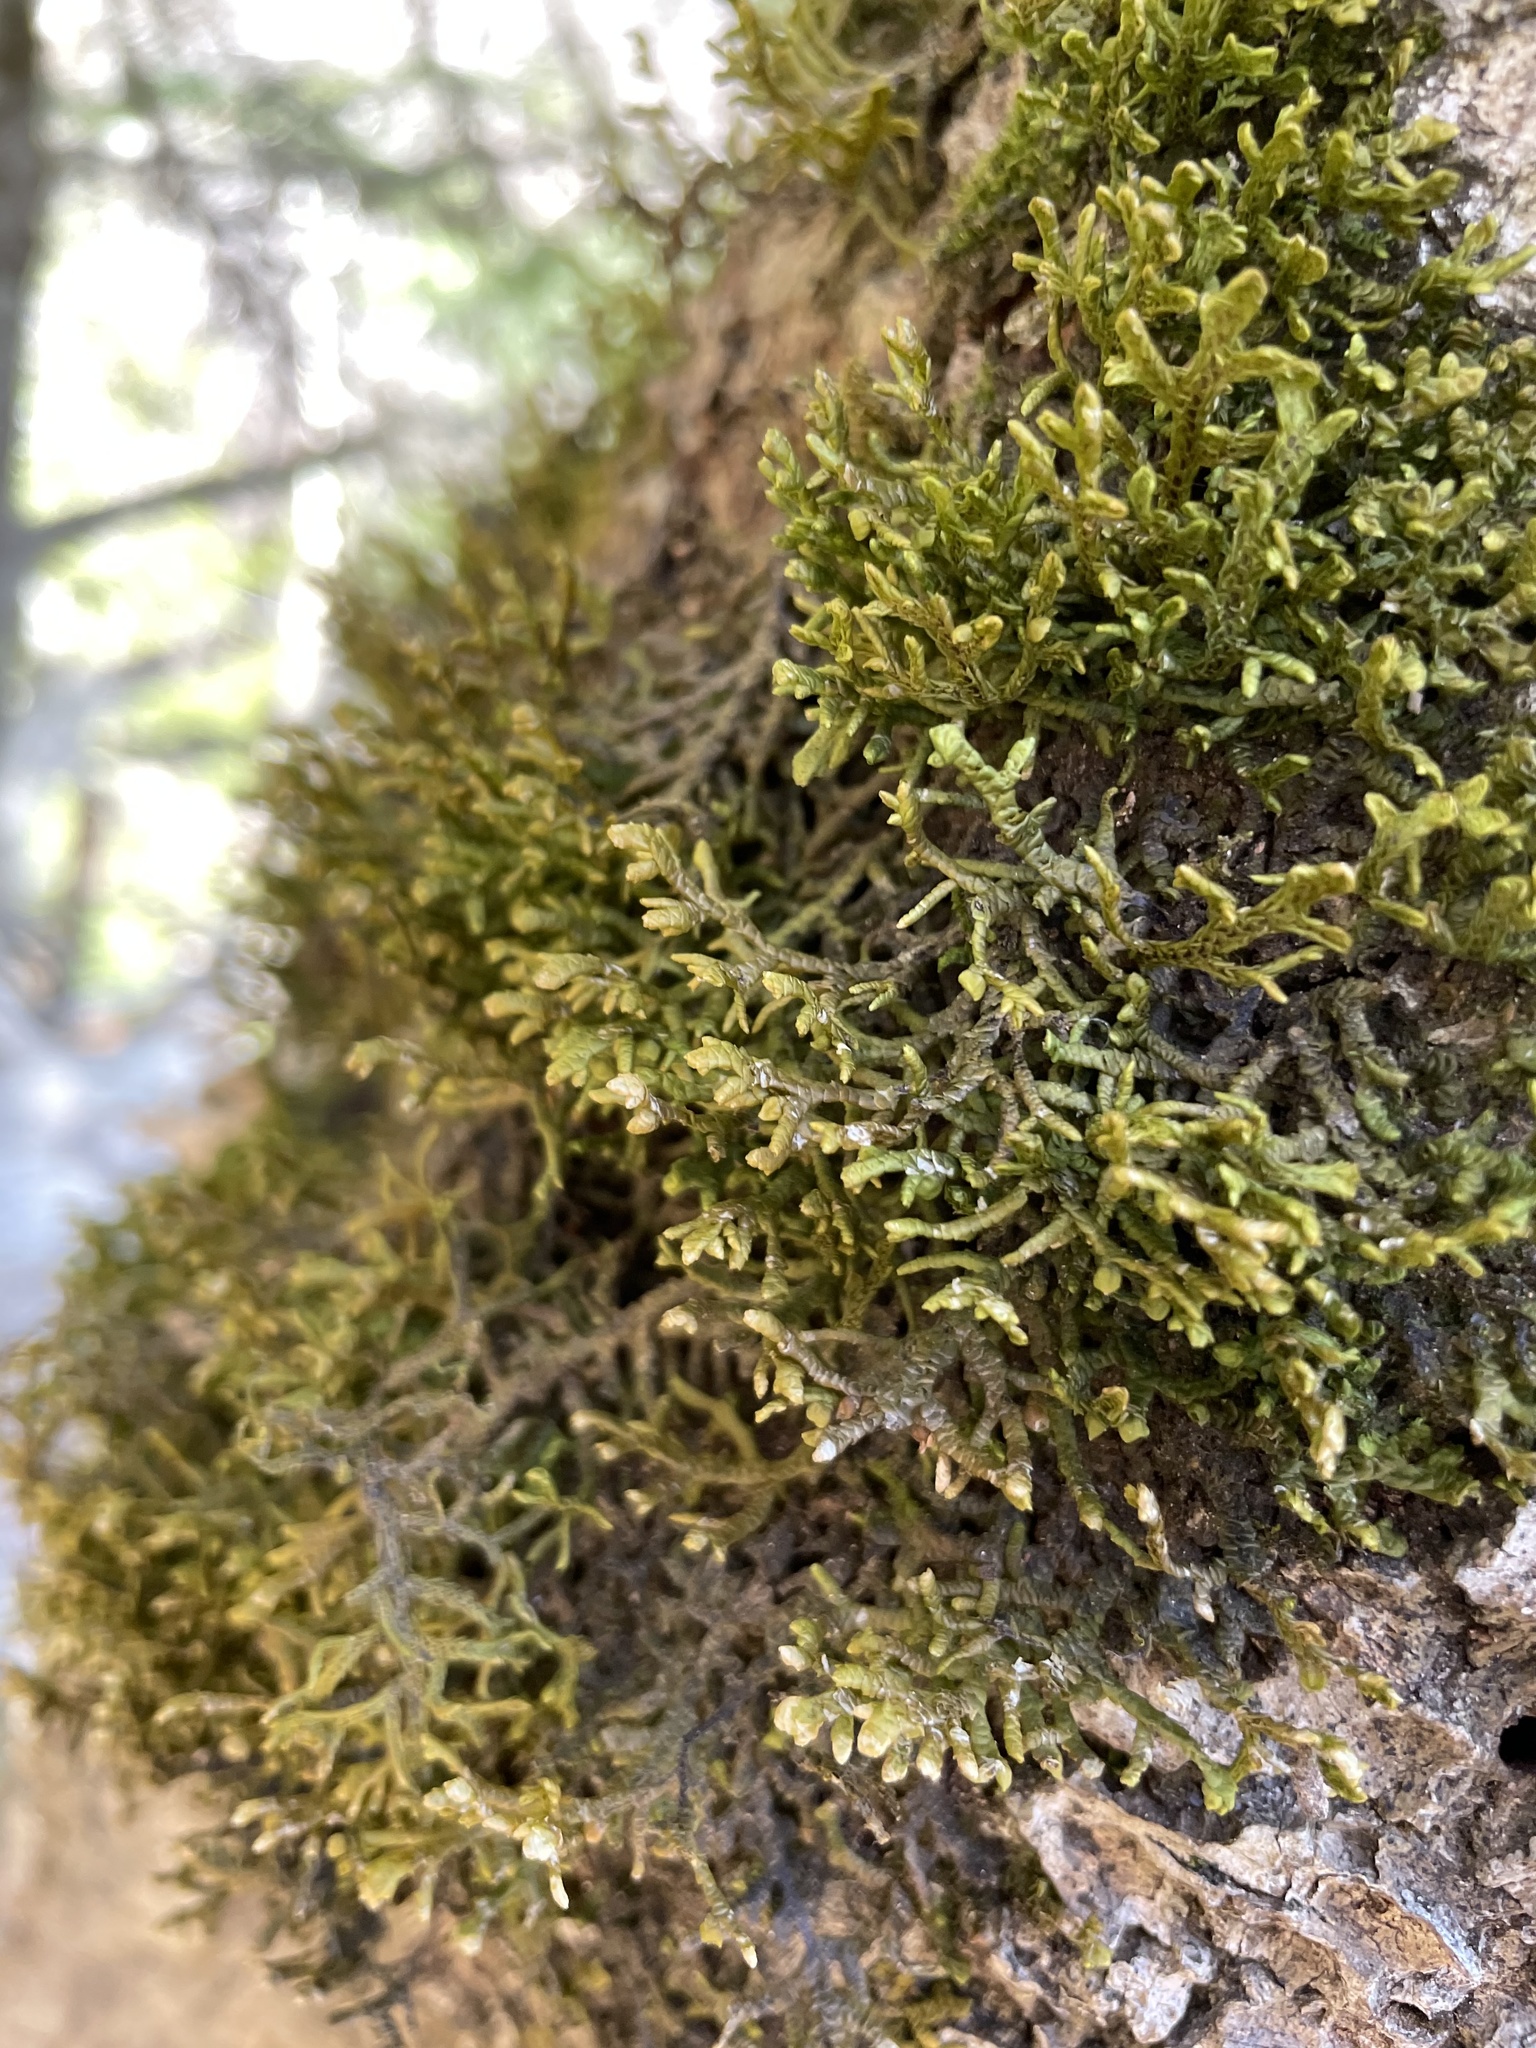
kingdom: Plantae
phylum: Marchantiophyta
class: Jungermanniopsida
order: Porellales
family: Porellaceae
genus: Porella
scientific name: Porella platyphylla
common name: Wall scalewort
